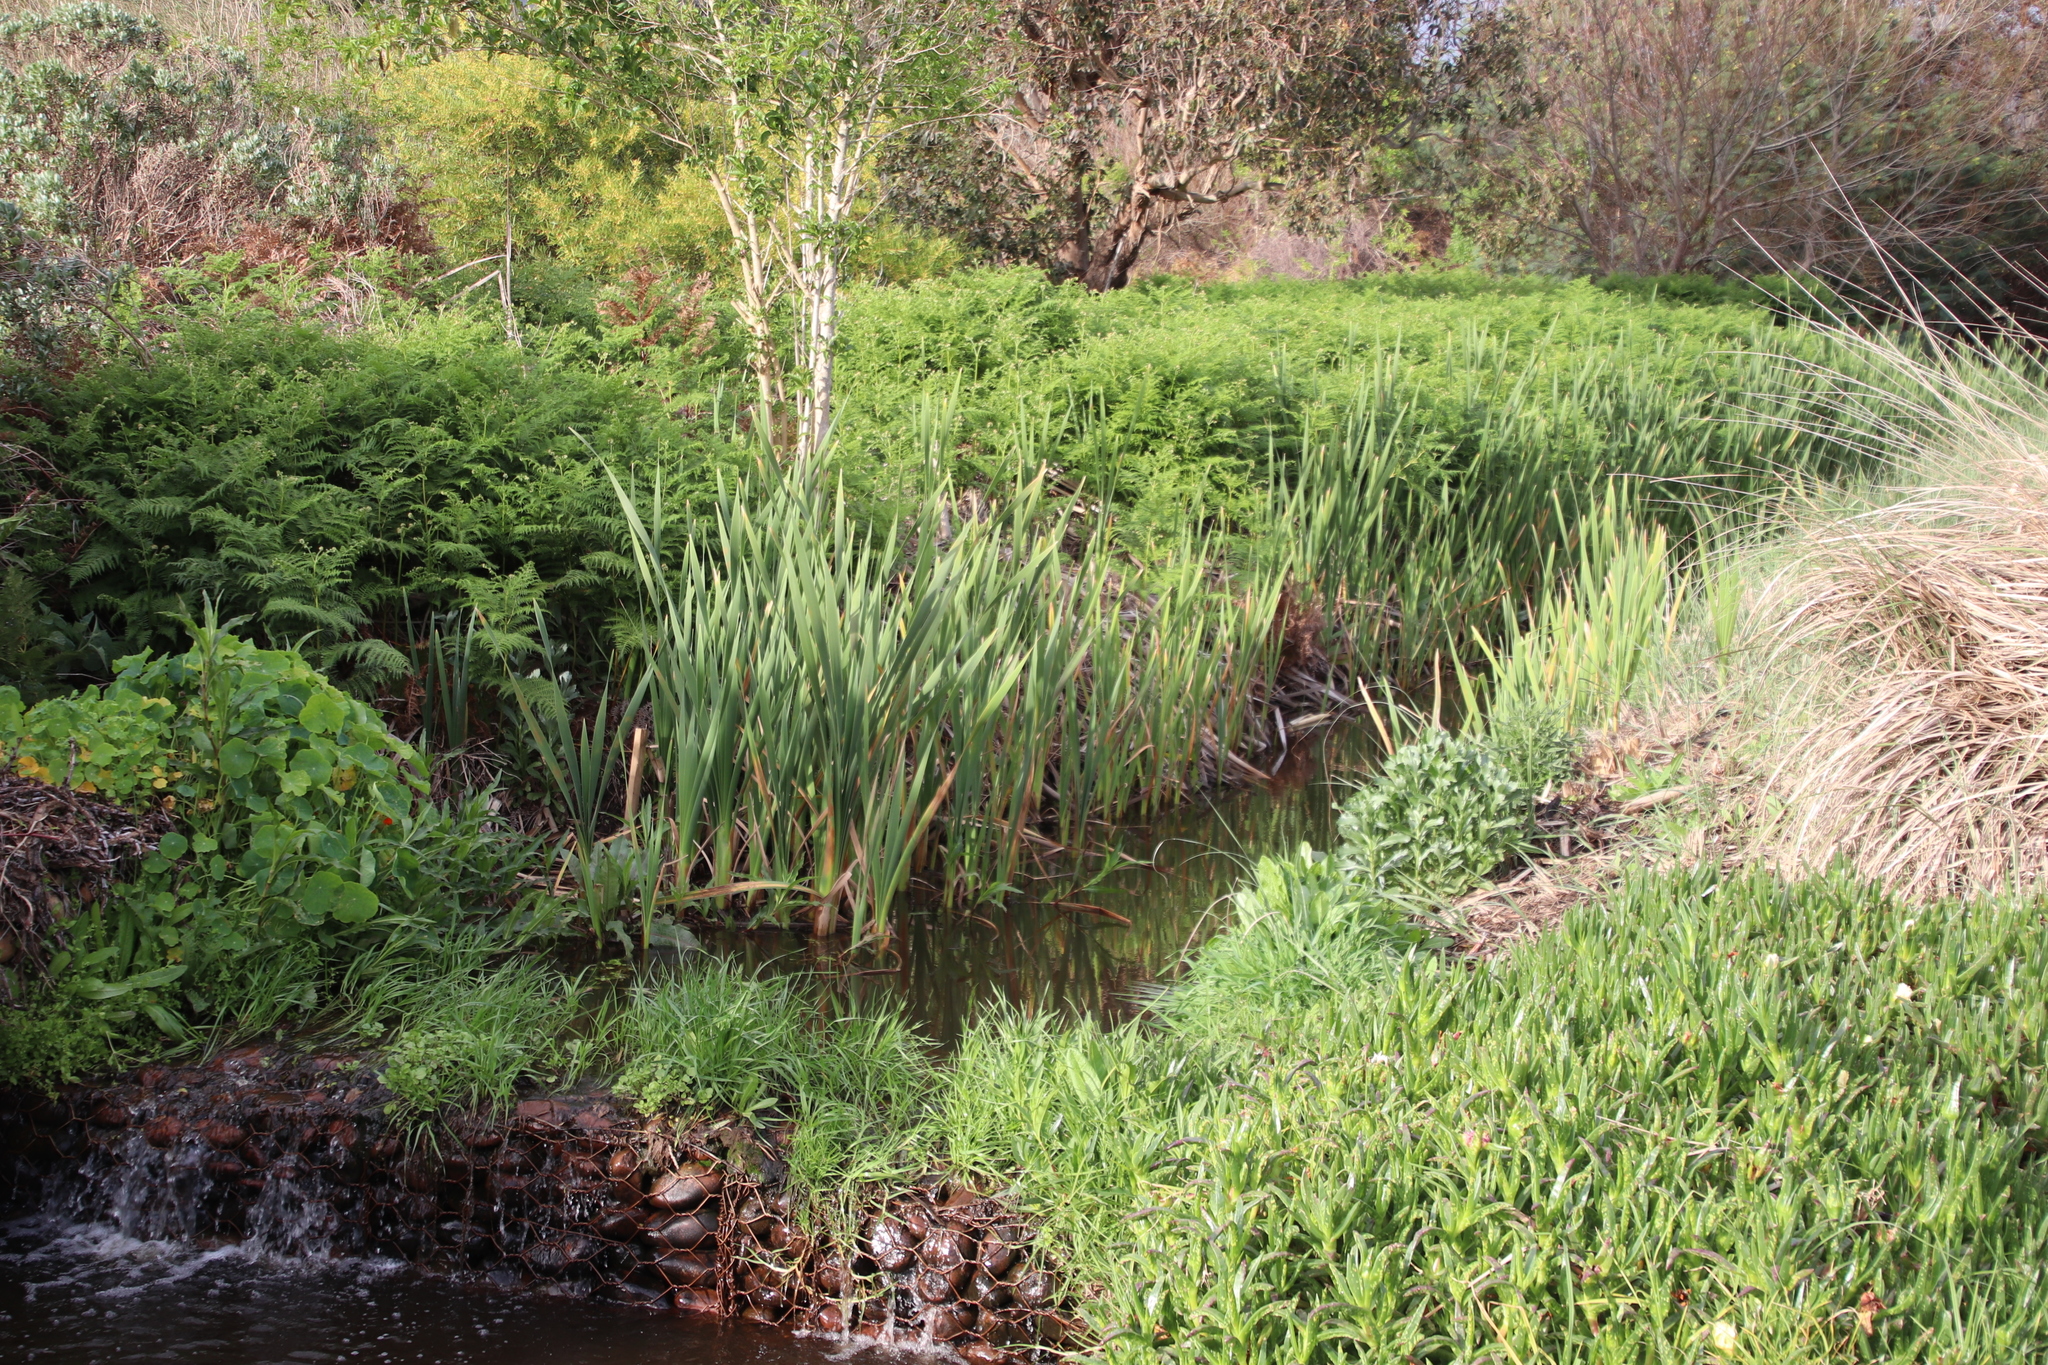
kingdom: Plantae
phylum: Tracheophyta
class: Liliopsida
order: Poales
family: Typhaceae
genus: Typha
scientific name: Typha capensis
